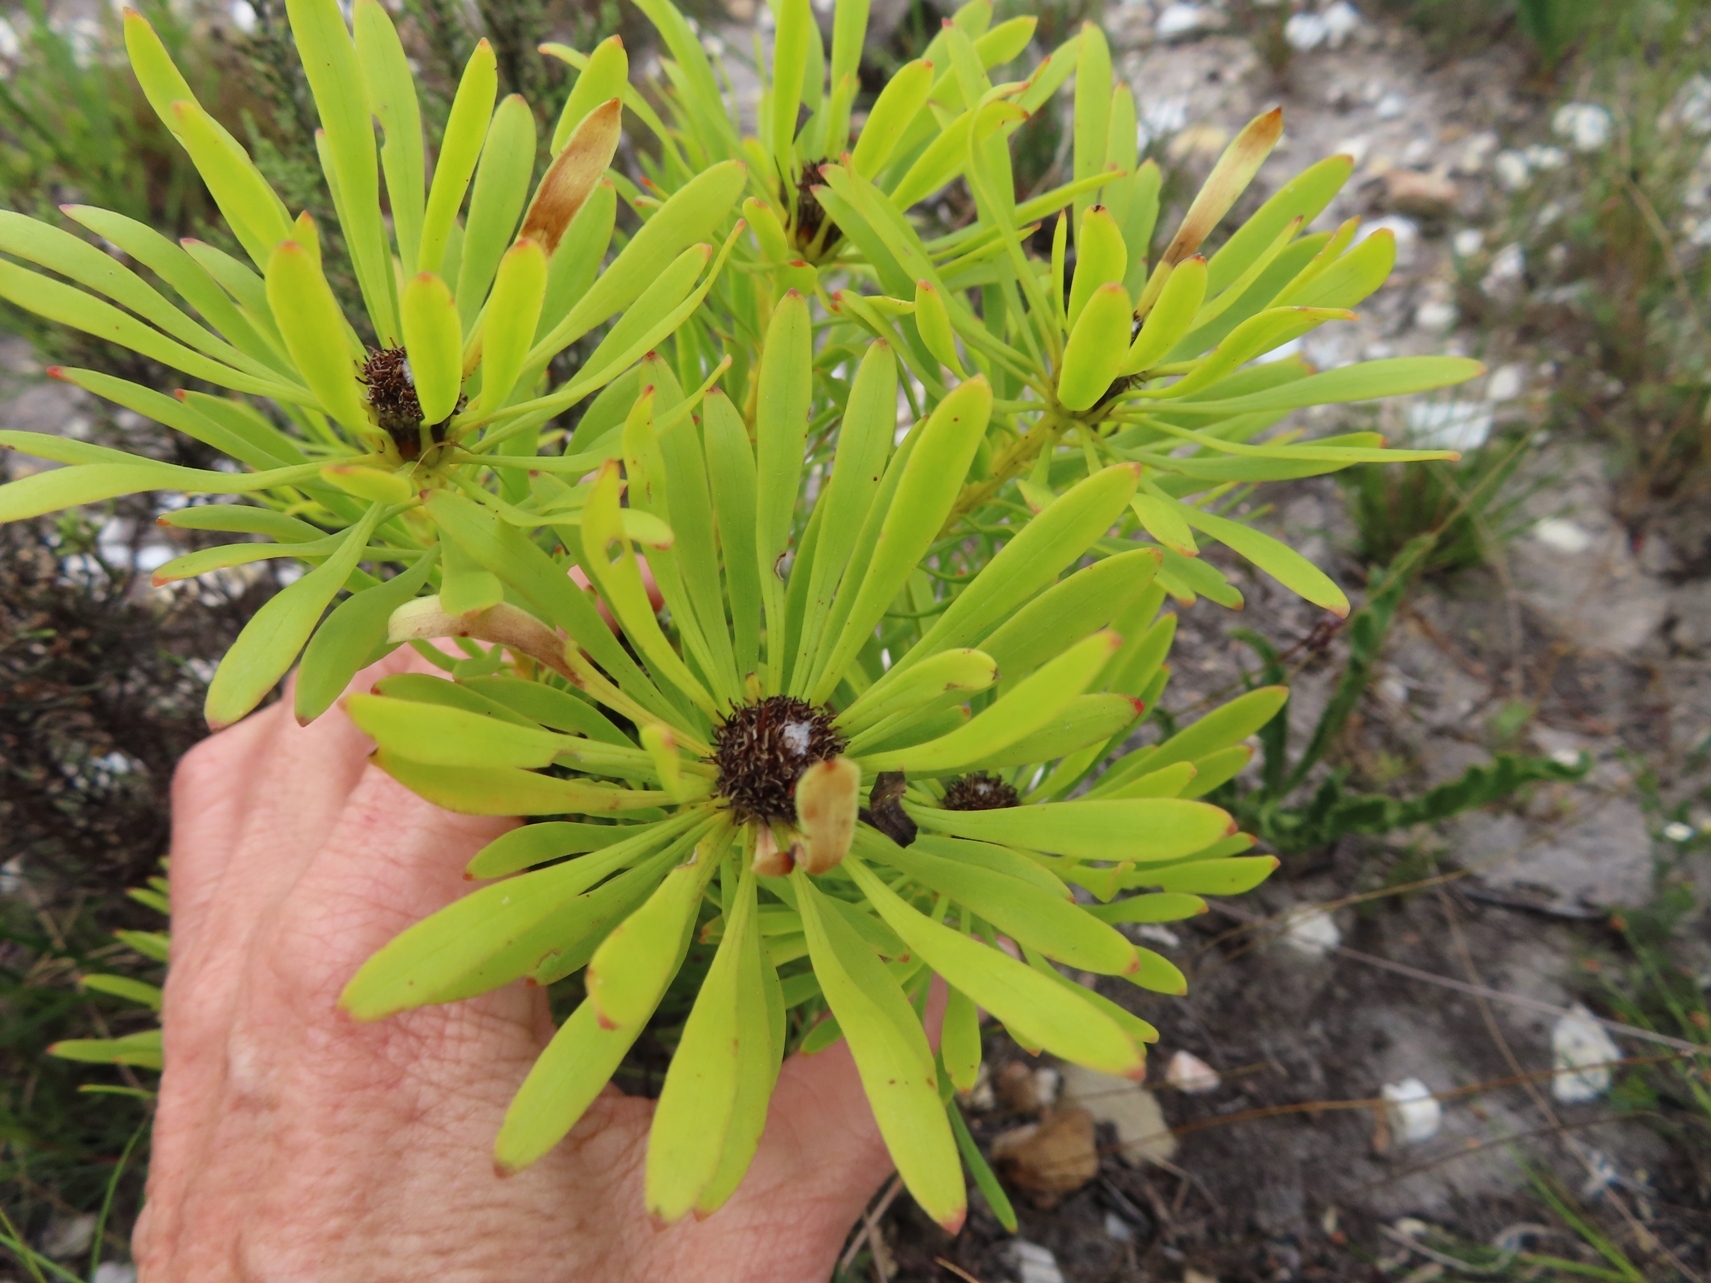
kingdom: Plantae
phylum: Tracheophyta
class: Magnoliopsida
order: Proteales
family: Proteaceae
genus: Leucadendron
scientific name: Leucadendron platyspermum
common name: Plate-seed conebush
